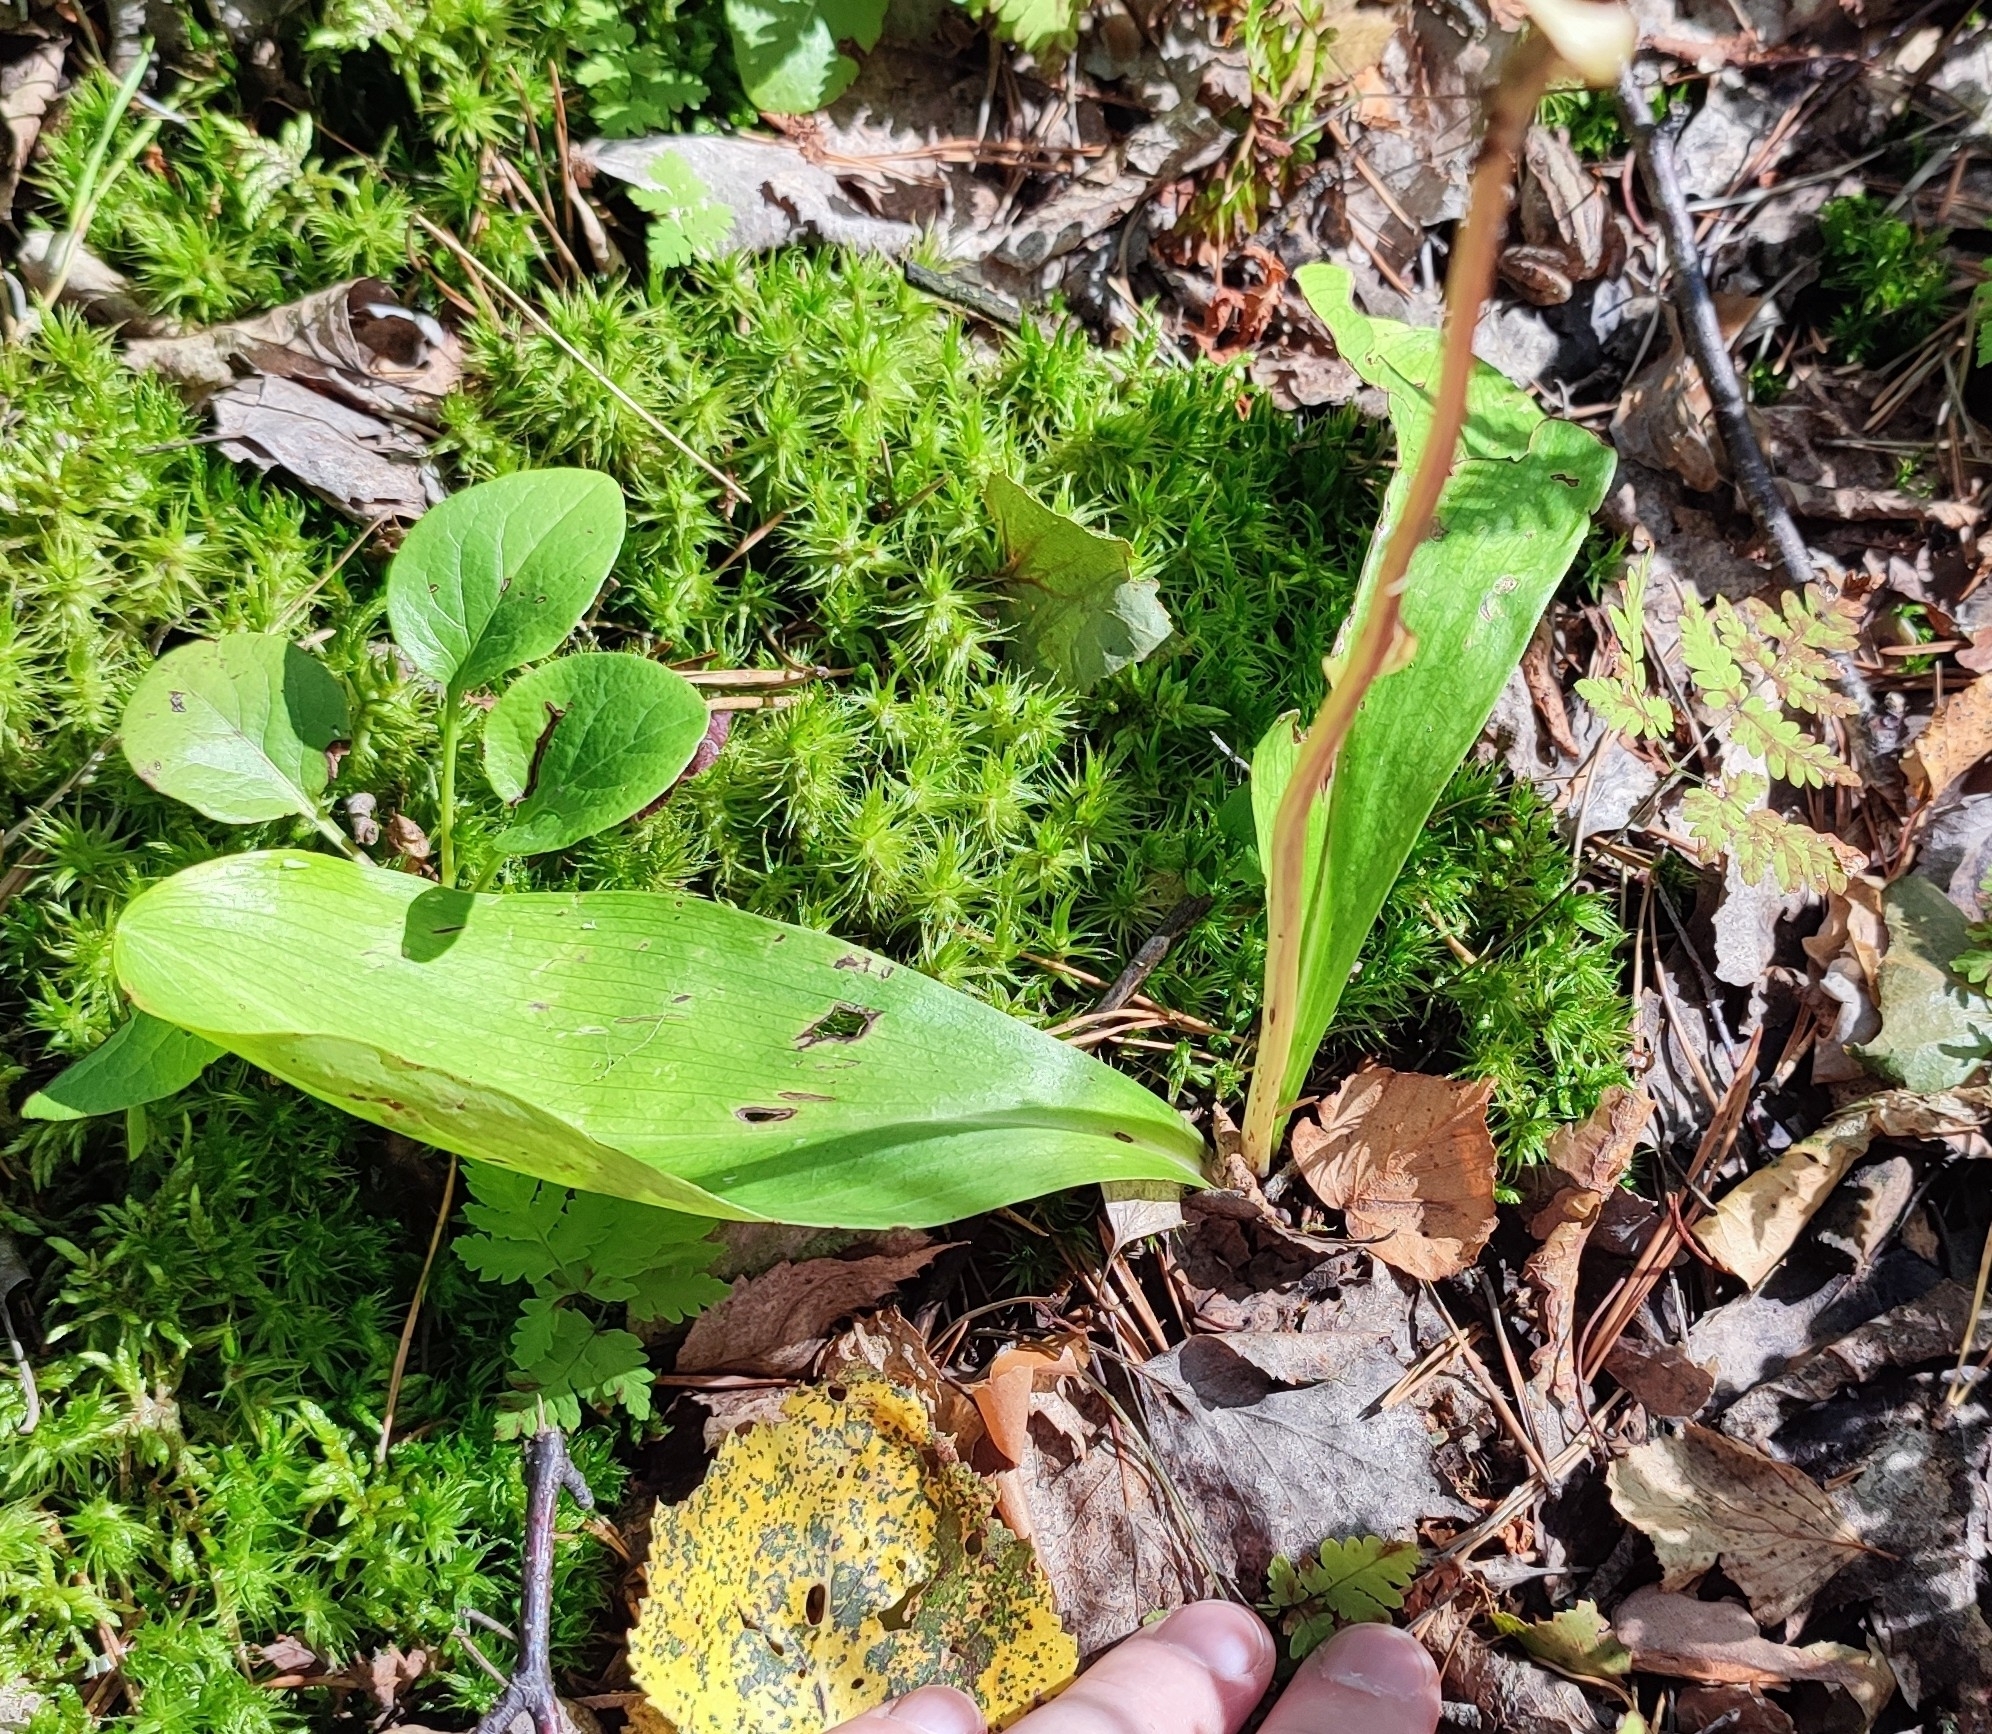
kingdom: Plantae
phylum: Tracheophyta
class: Liliopsida
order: Asparagales
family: Orchidaceae
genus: Platanthera
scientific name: Platanthera bifolia
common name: Lesser butterfly-orchid
